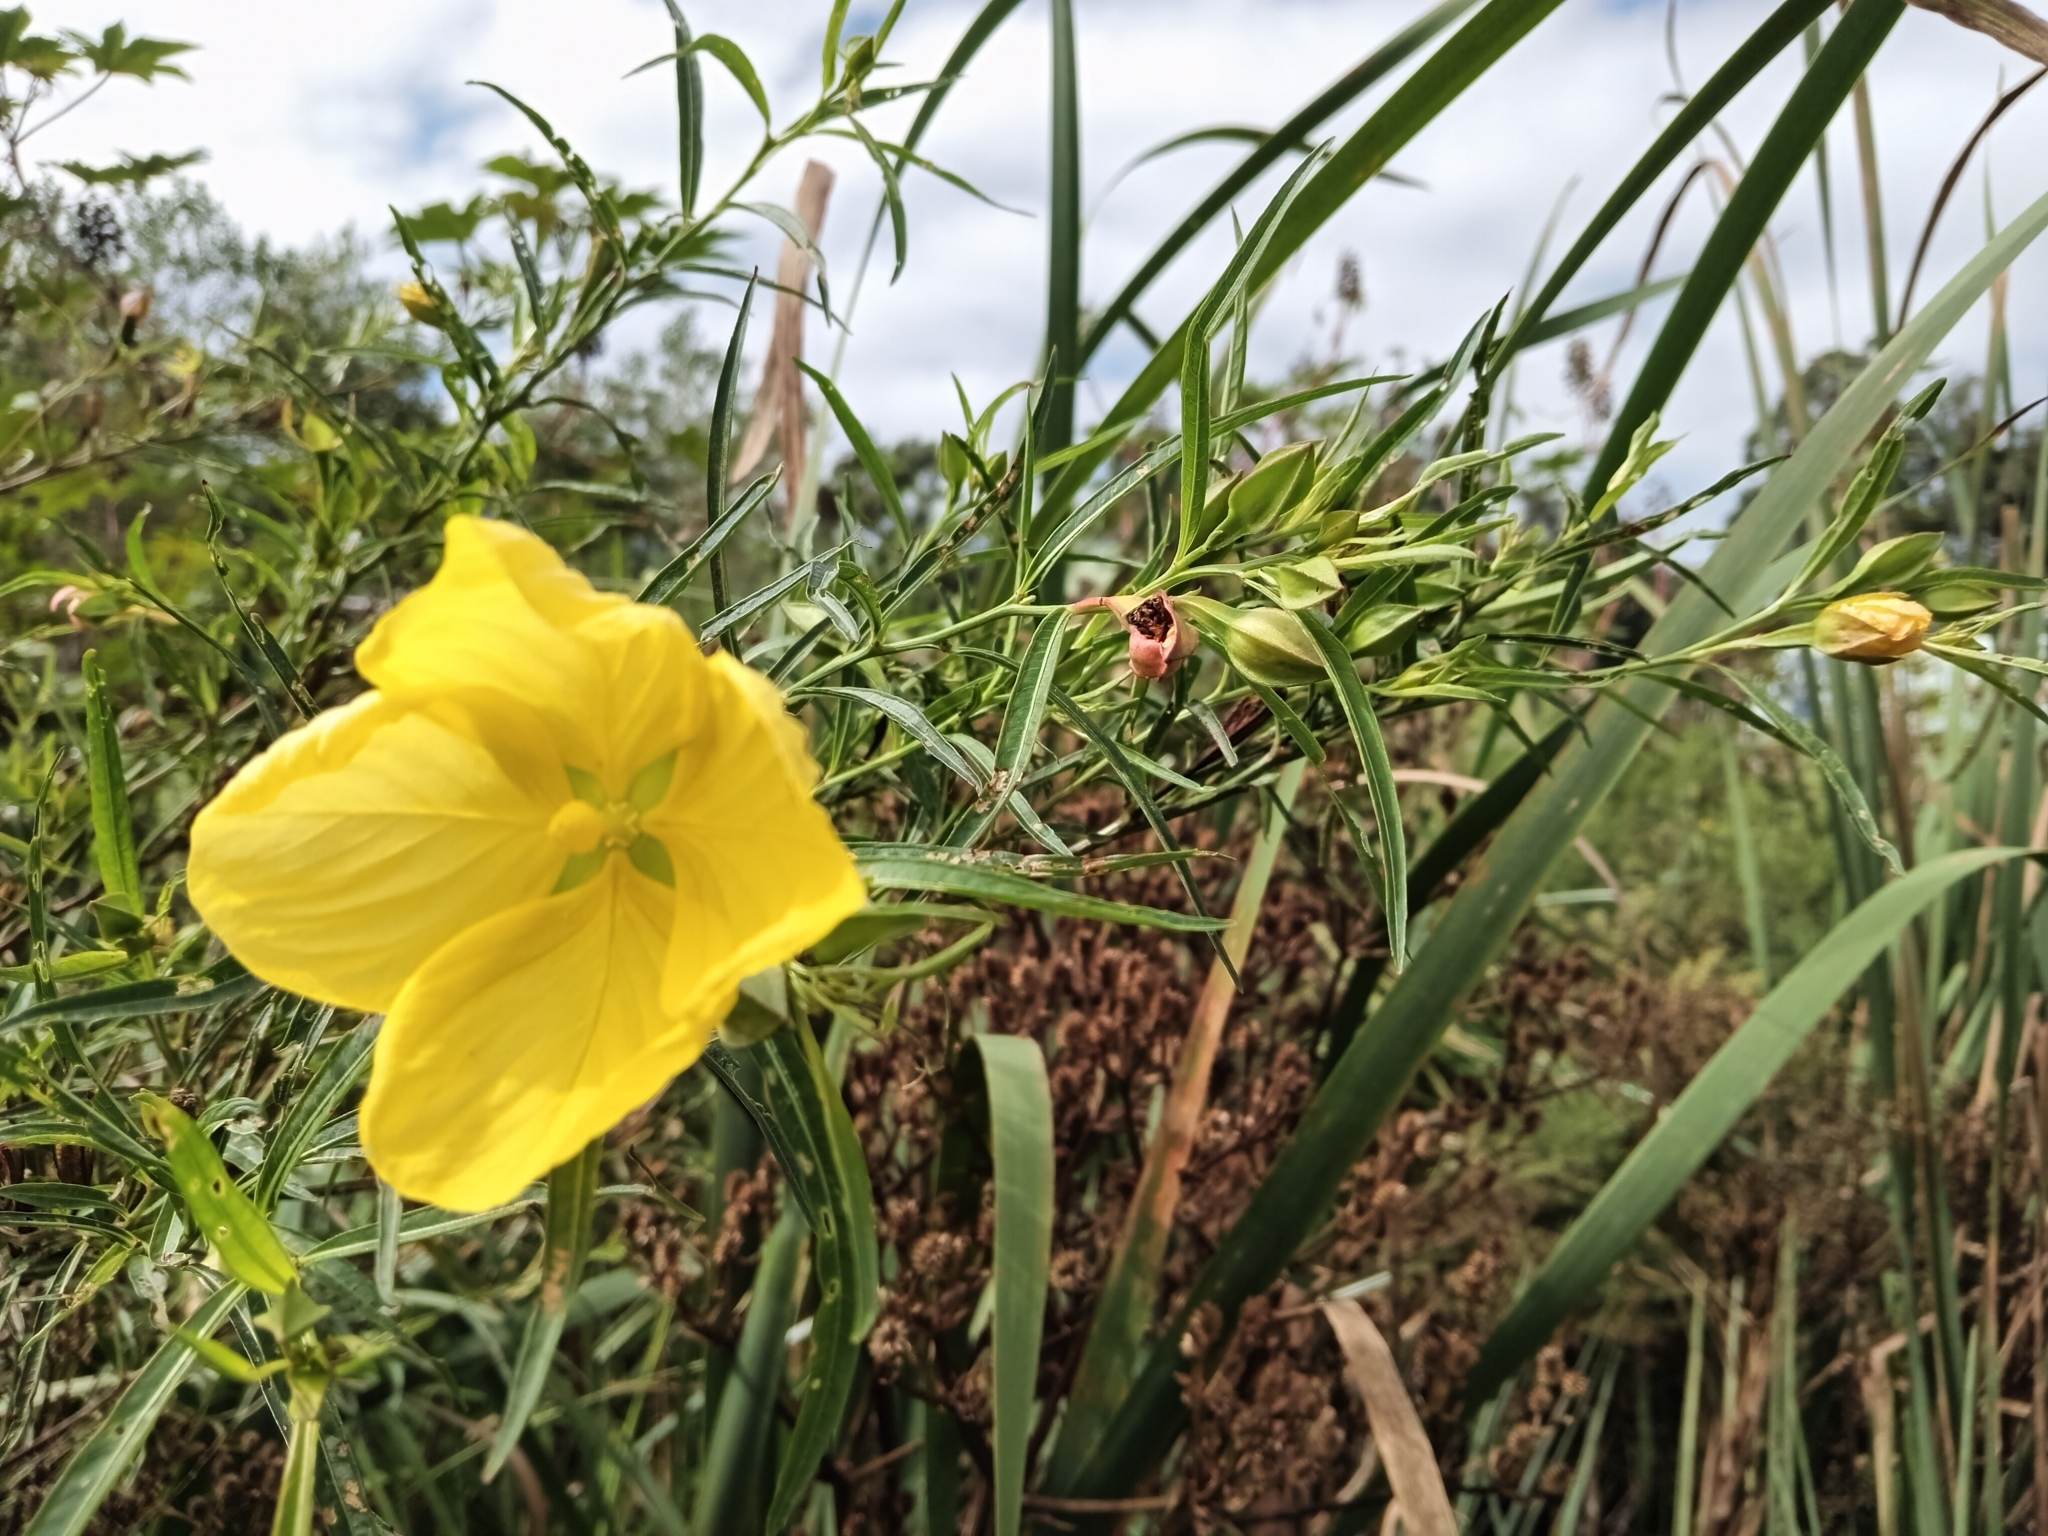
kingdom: Plantae
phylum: Tracheophyta
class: Magnoliopsida
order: Myrtales
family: Onagraceae
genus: Ludwigia
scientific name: Ludwigia longifolia
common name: Longleaf primrose-willow
